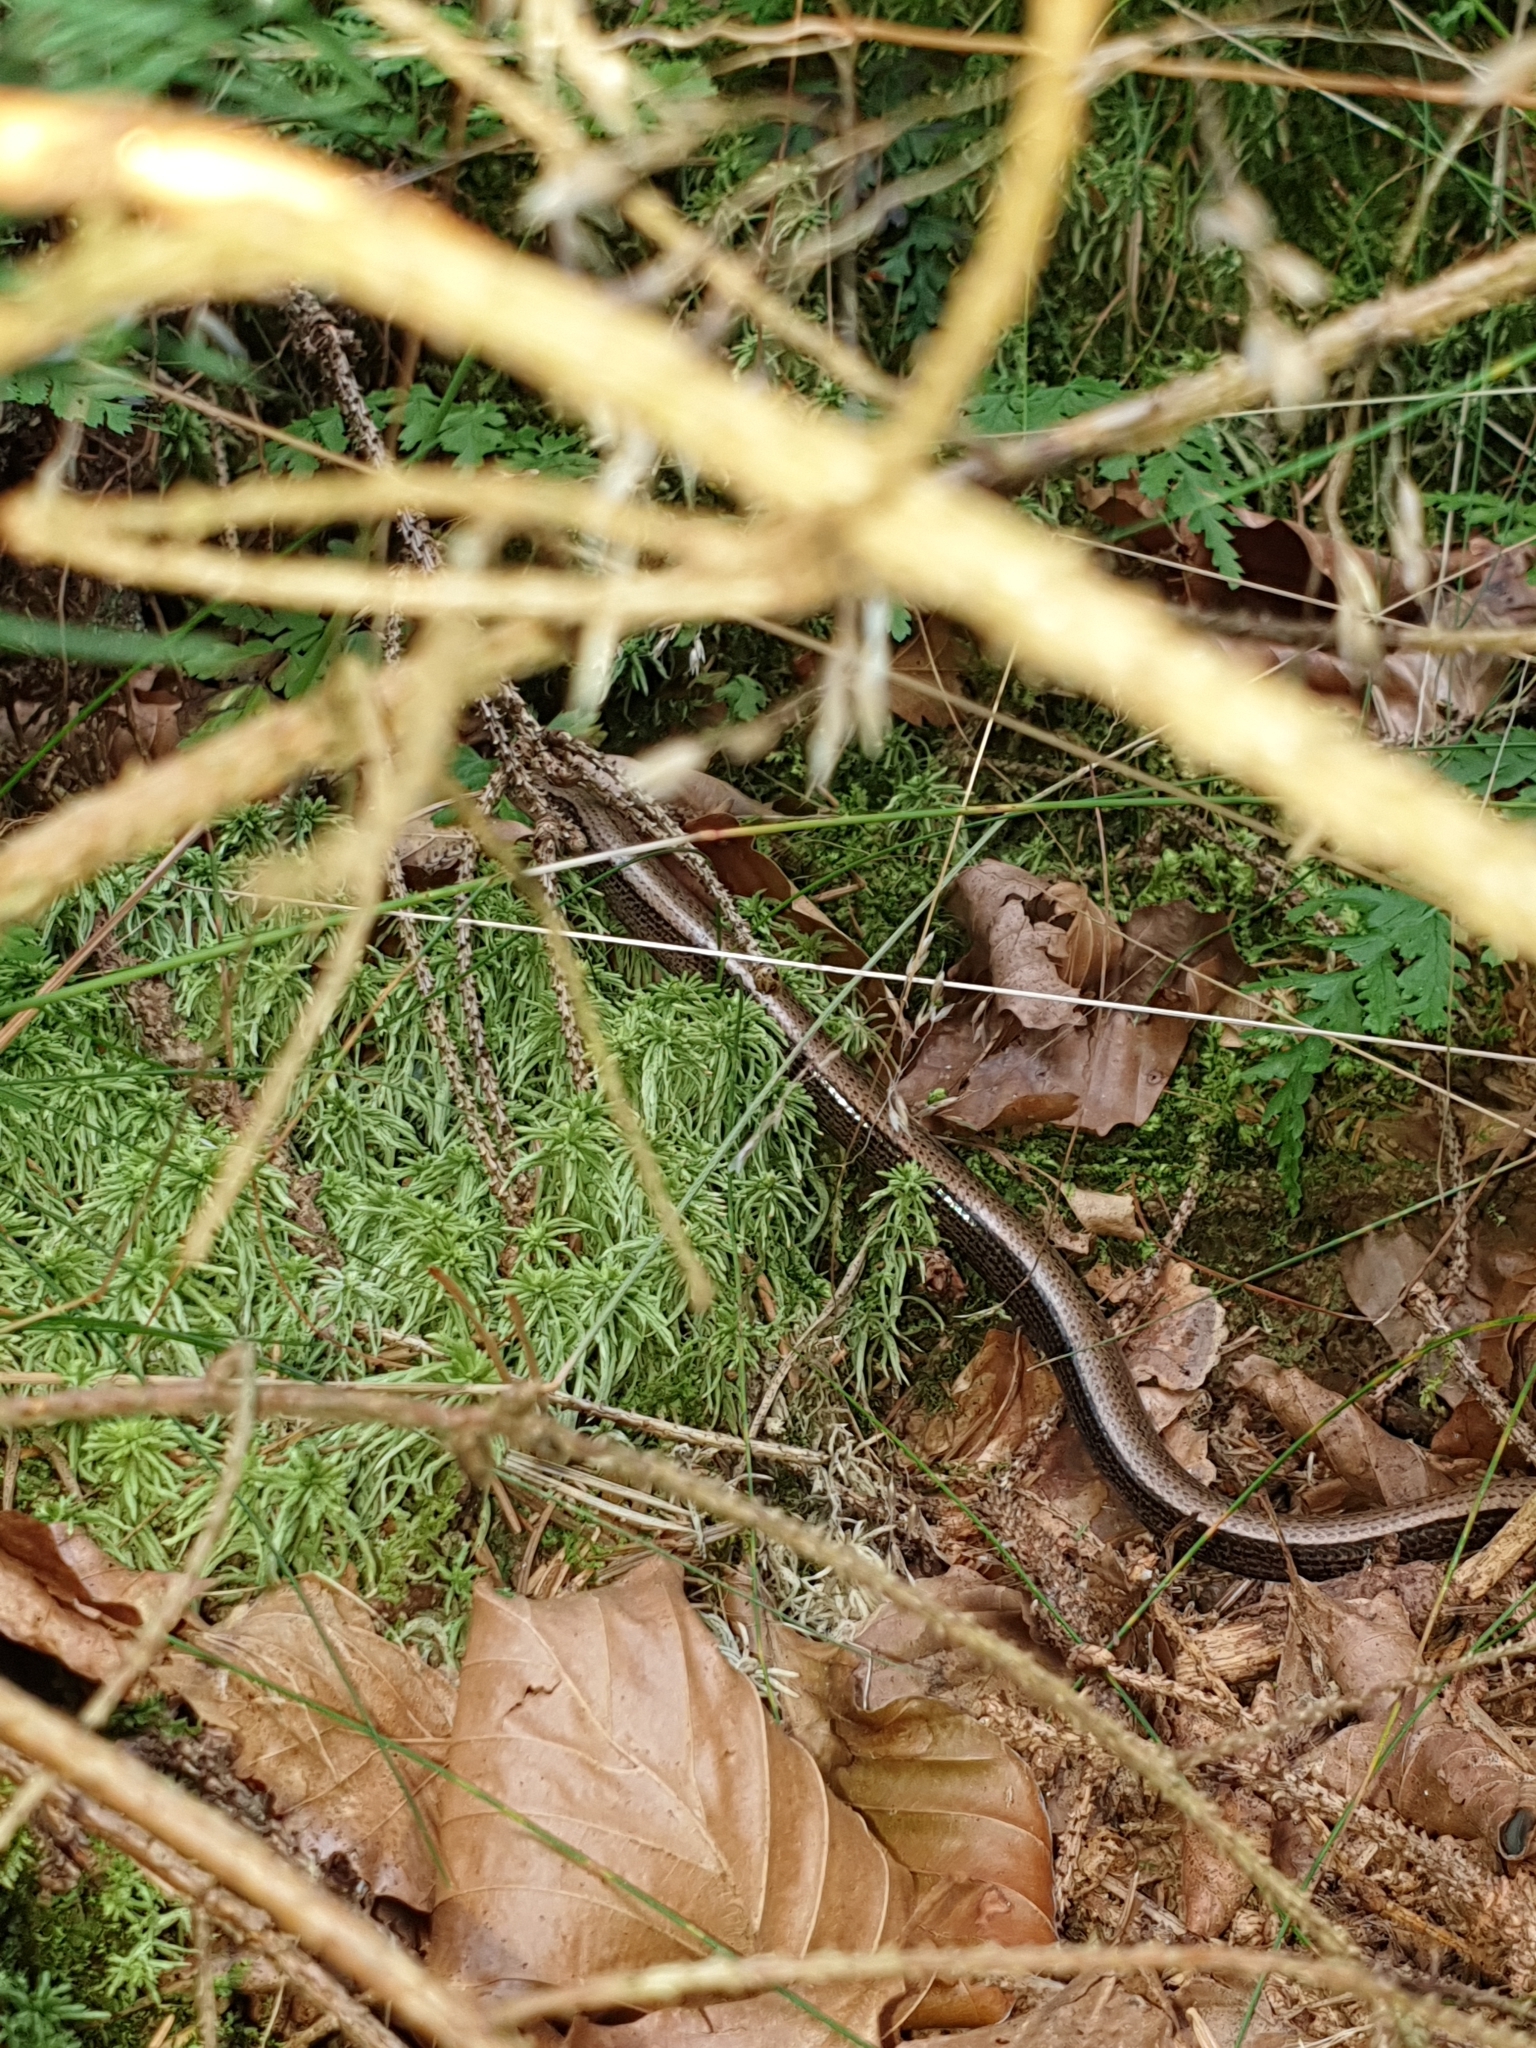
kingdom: Animalia
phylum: Chordata
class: Squamata
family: Anguidae
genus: Anguis
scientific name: Anguis fragilis
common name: Slow worm
